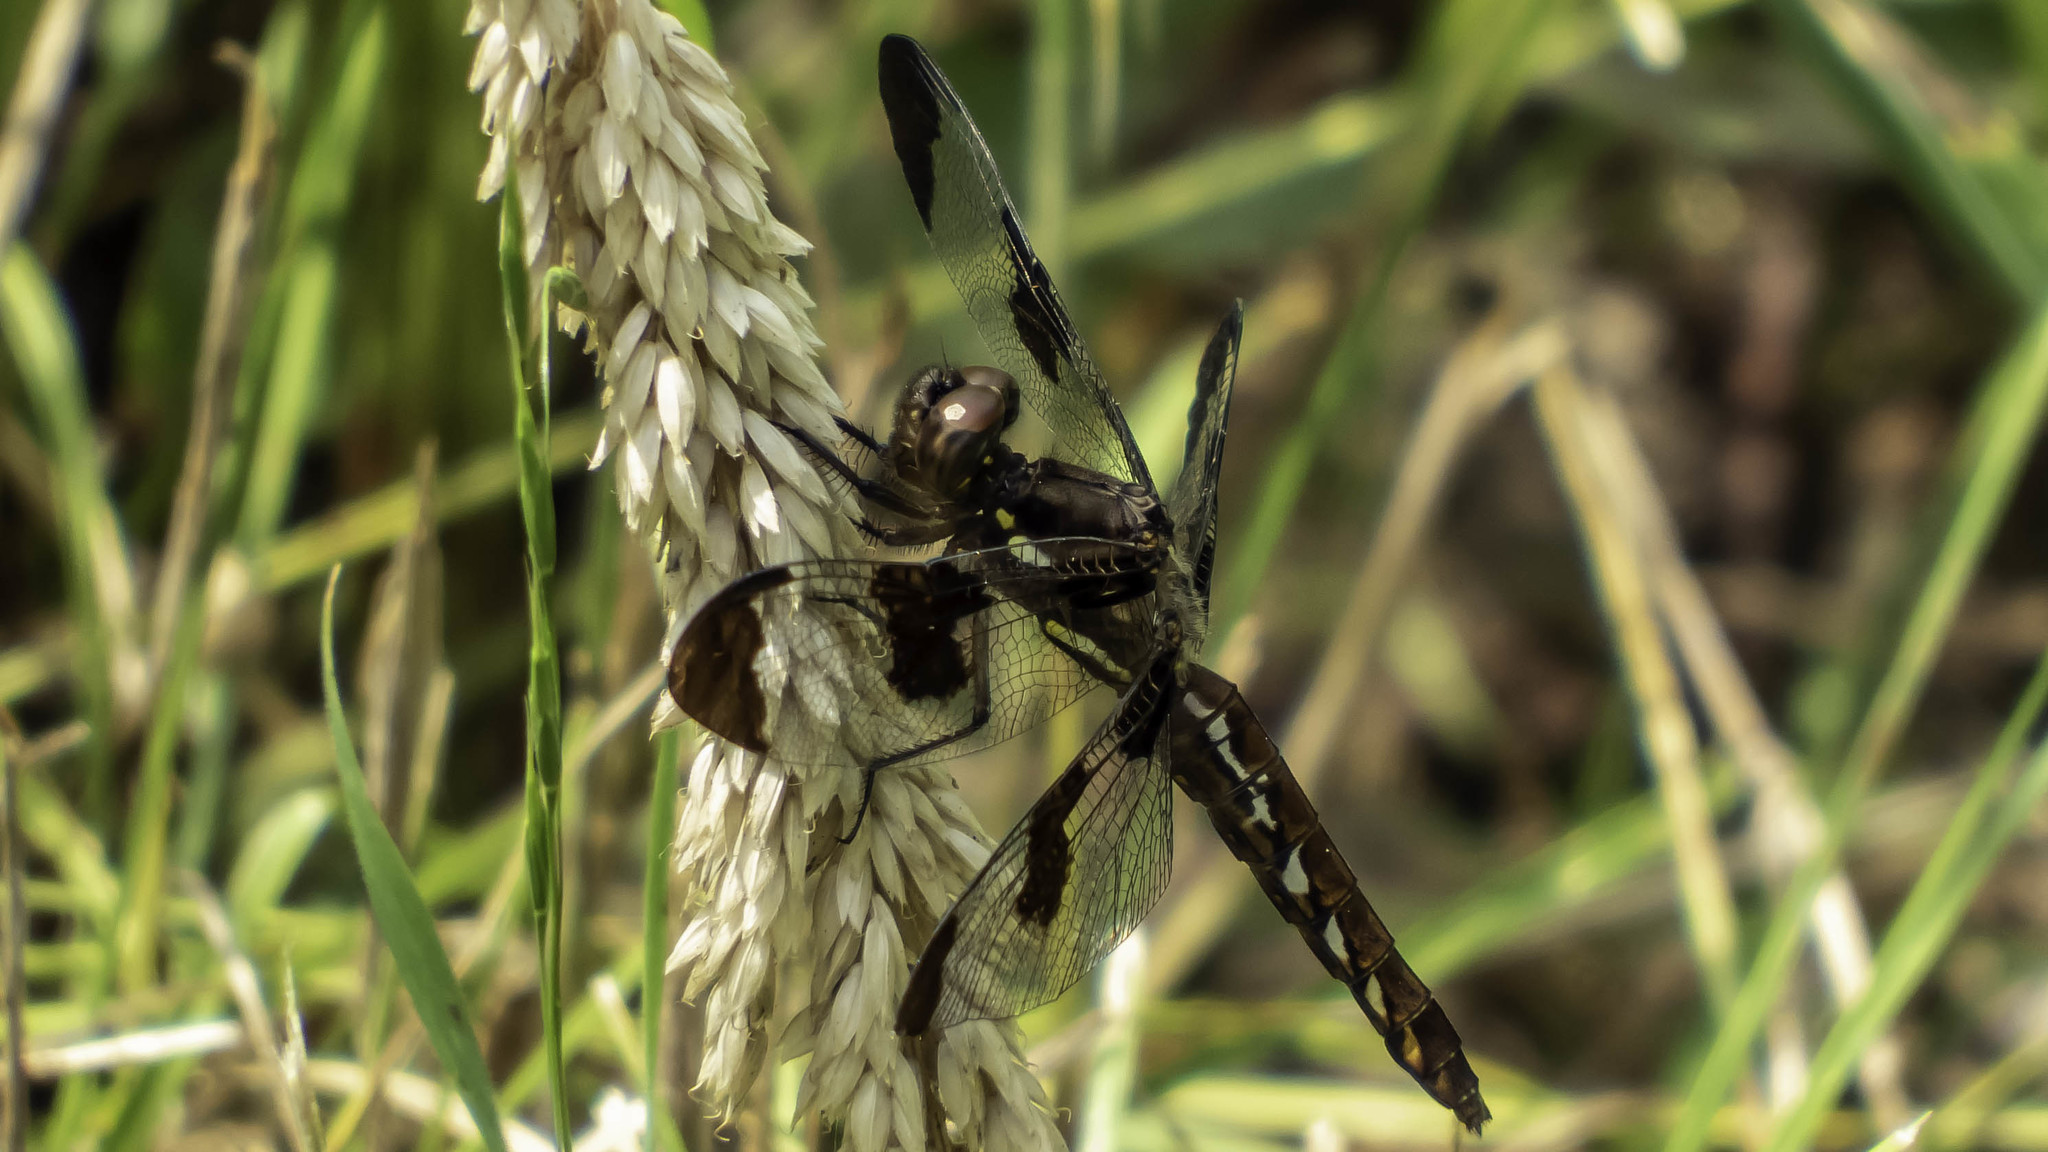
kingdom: Animalia
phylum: Arthropoda
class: Insecta
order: Odonata
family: Libellulidae
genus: Plathemis
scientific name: Plathemis lydia
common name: Common whitetail
